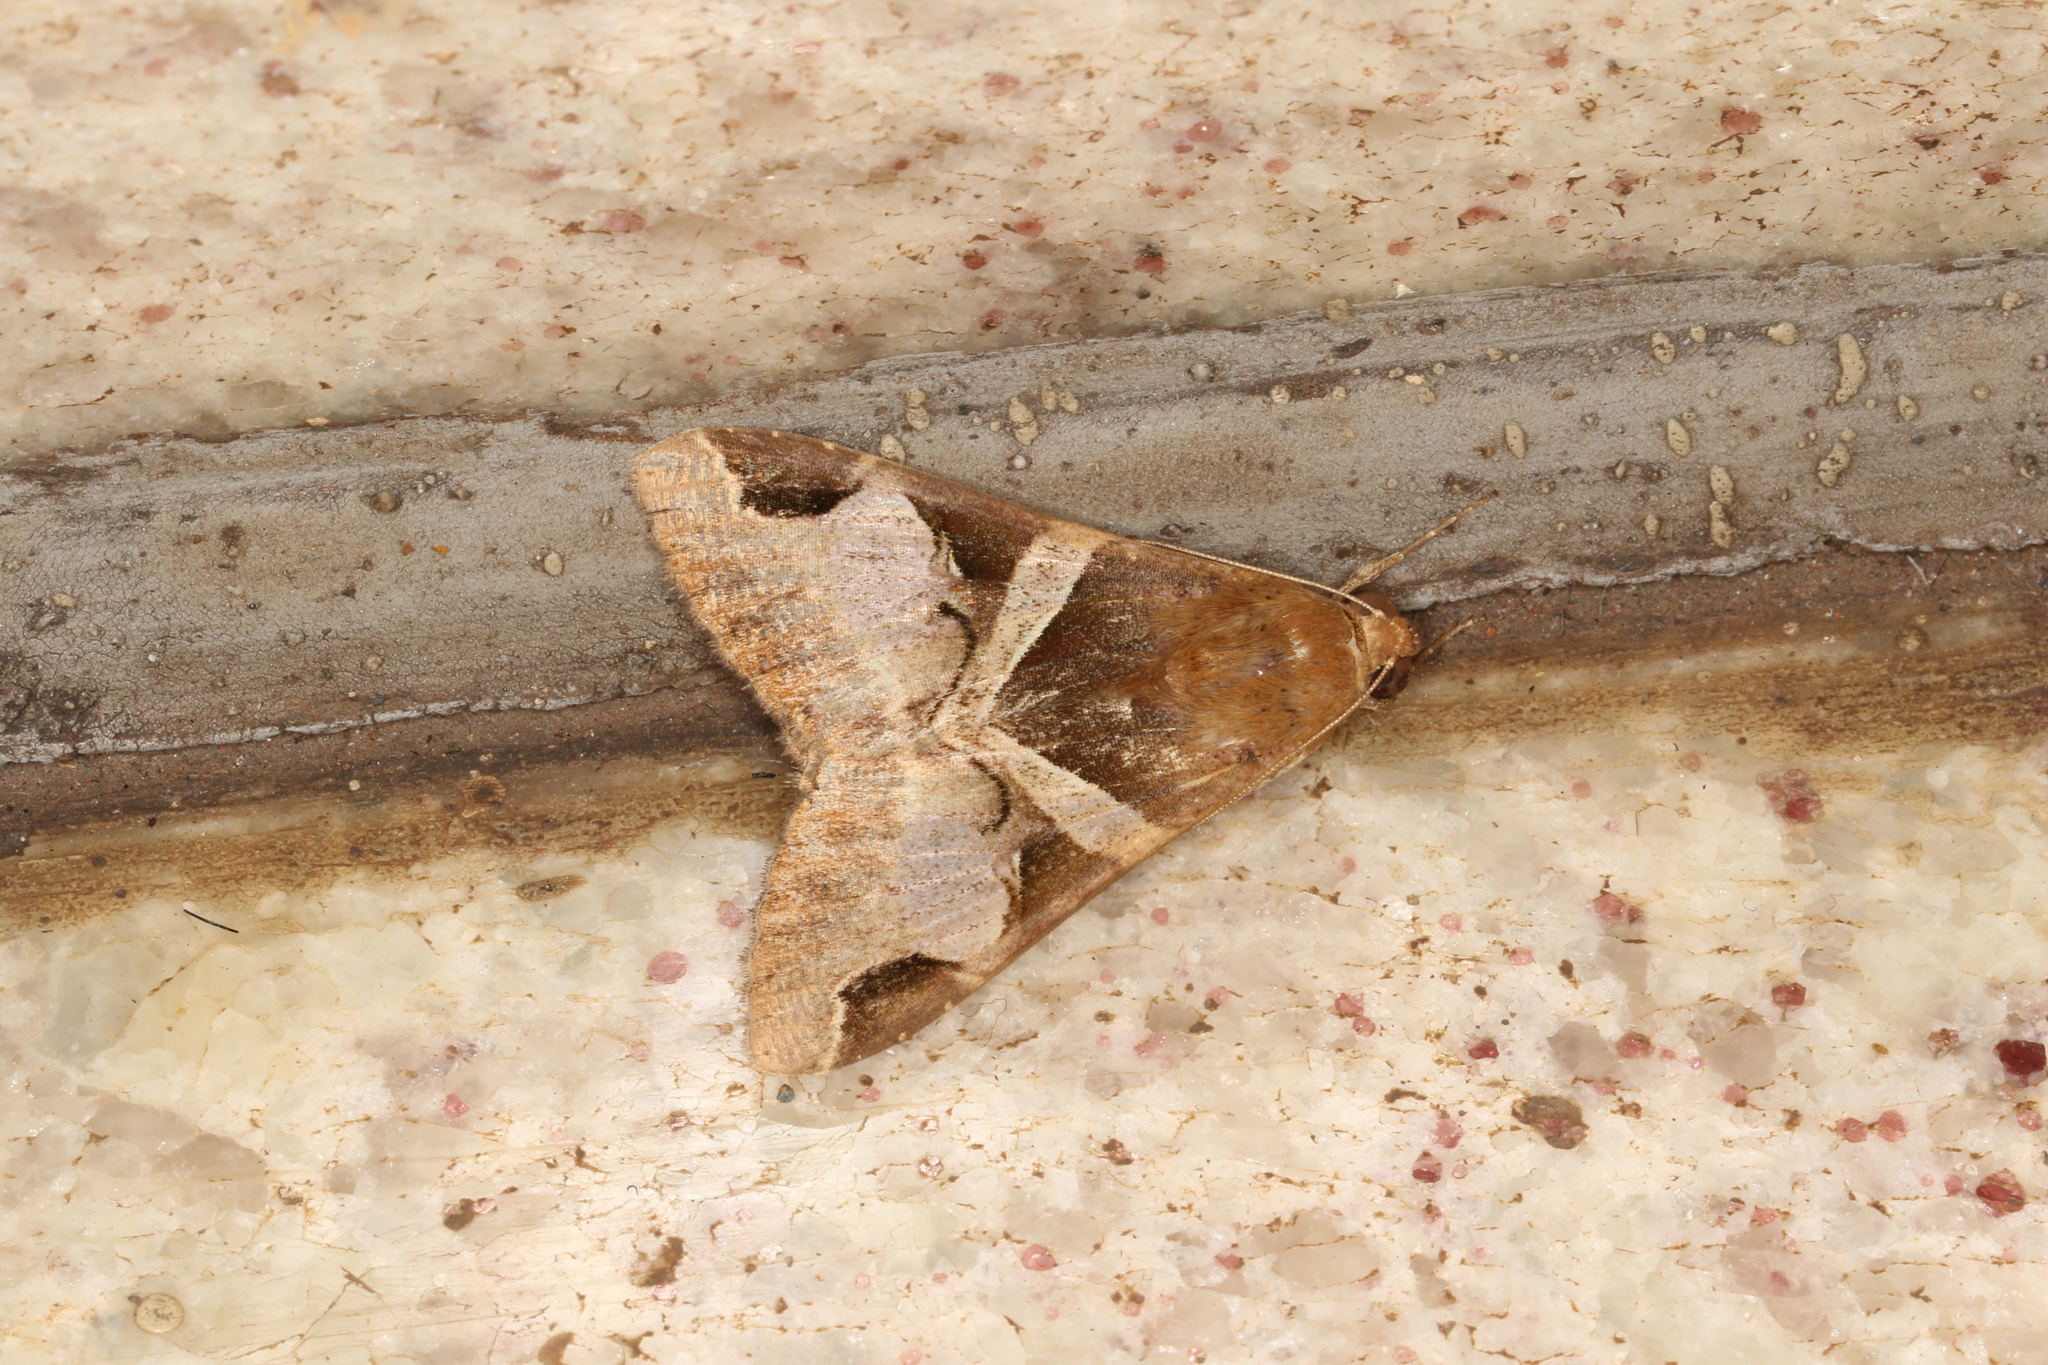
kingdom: Animalia
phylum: Arthropoda
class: Insecta
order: Lepidoptera
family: Erebidae
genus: Melipotis
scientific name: Melipotis fasciolaris
